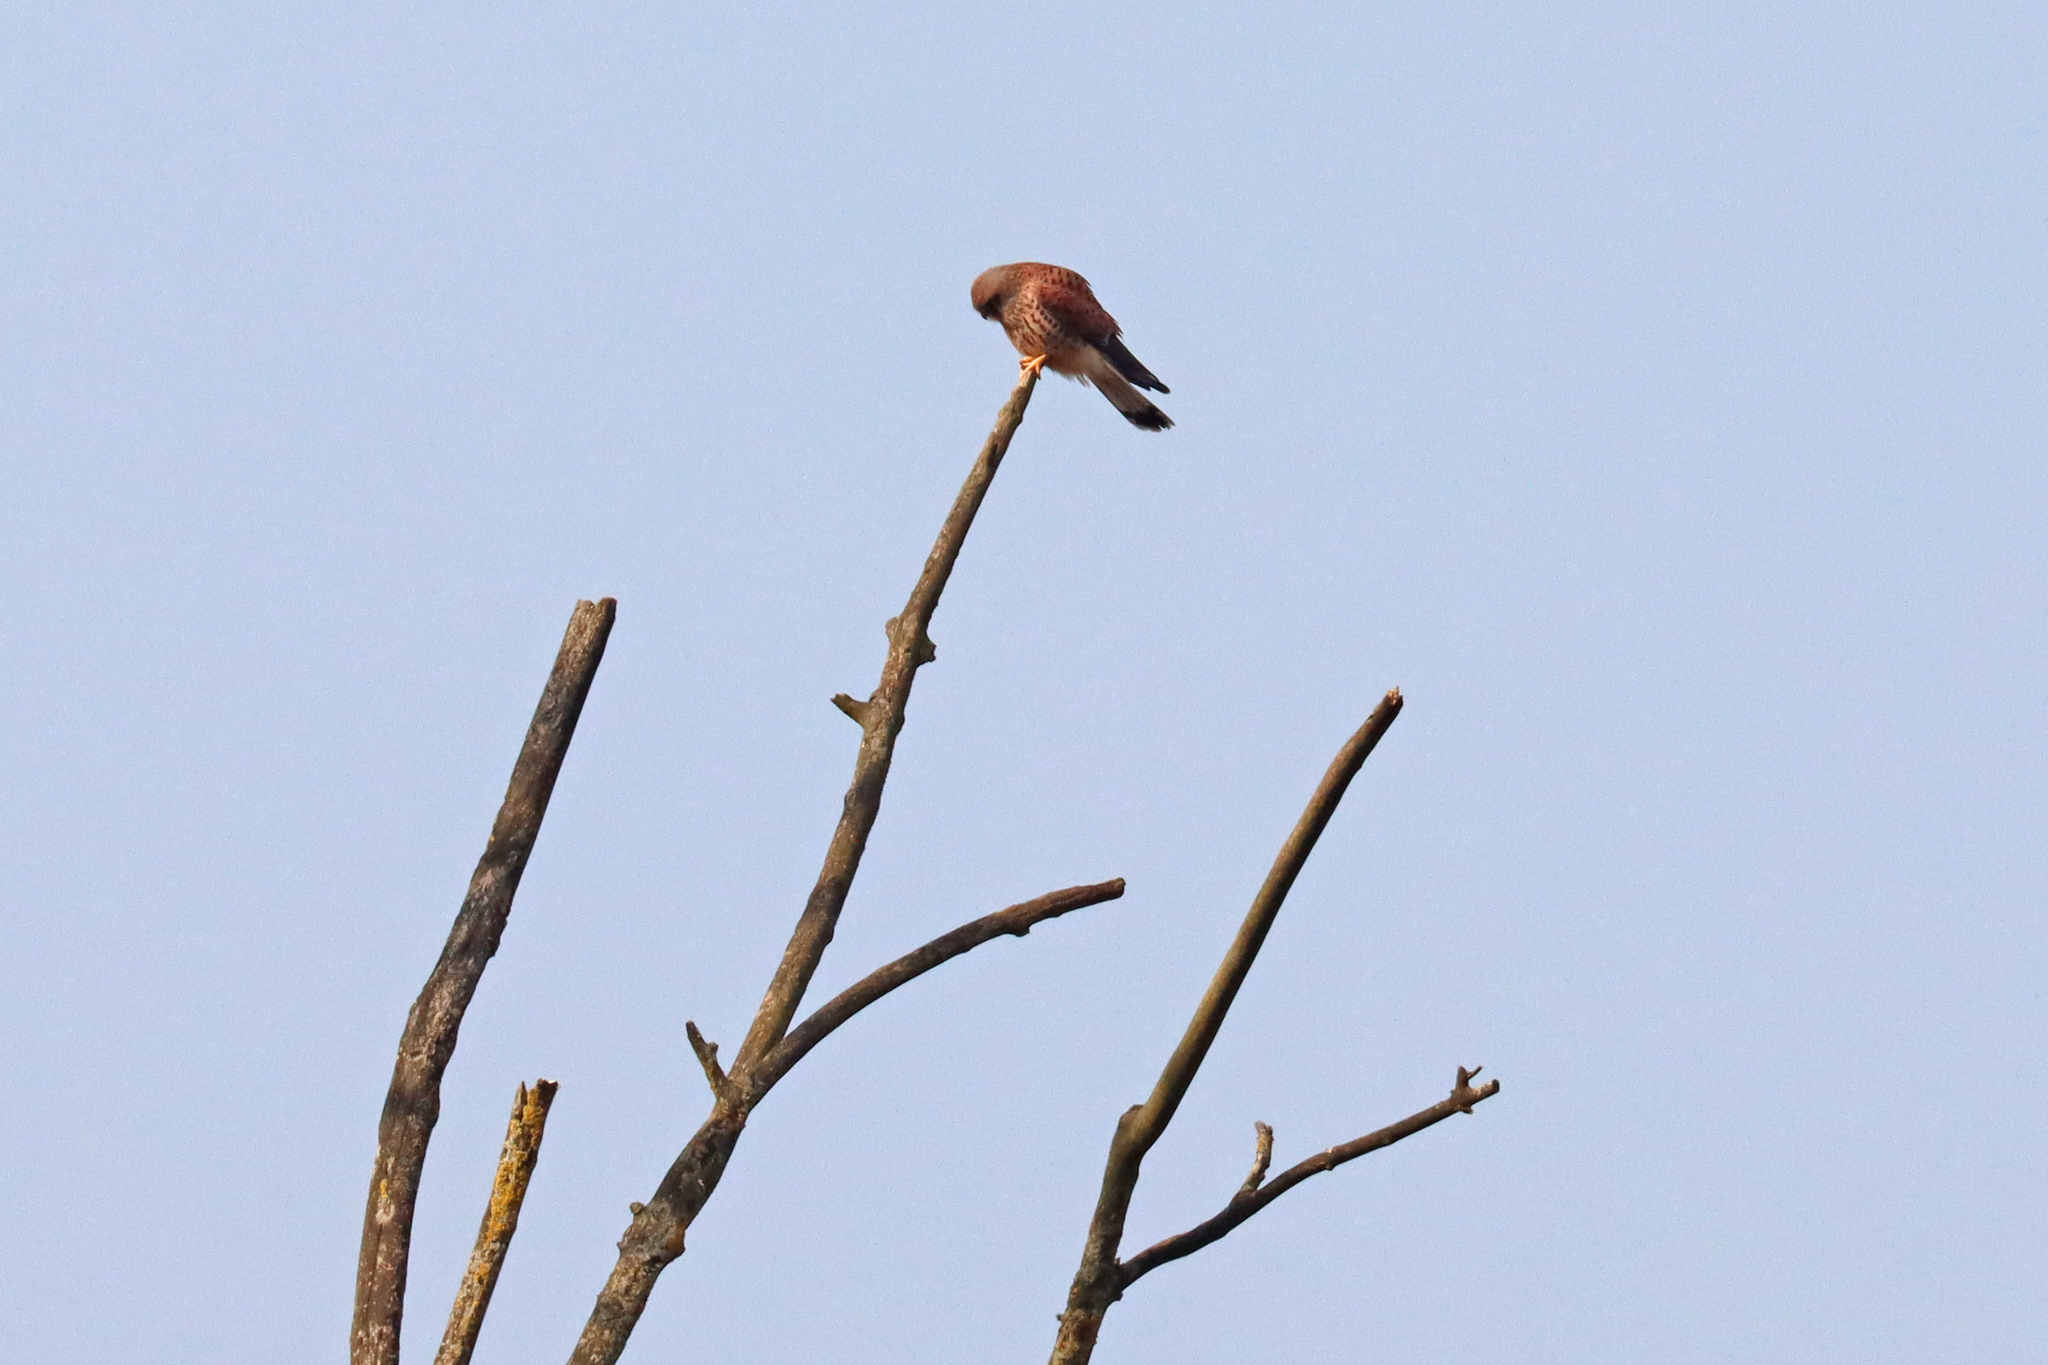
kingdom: Animalia
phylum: Chordata
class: Aves
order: Falconiformes
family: Falconidae
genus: Falco
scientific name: Falco tinnunculus
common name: Common kestrel
